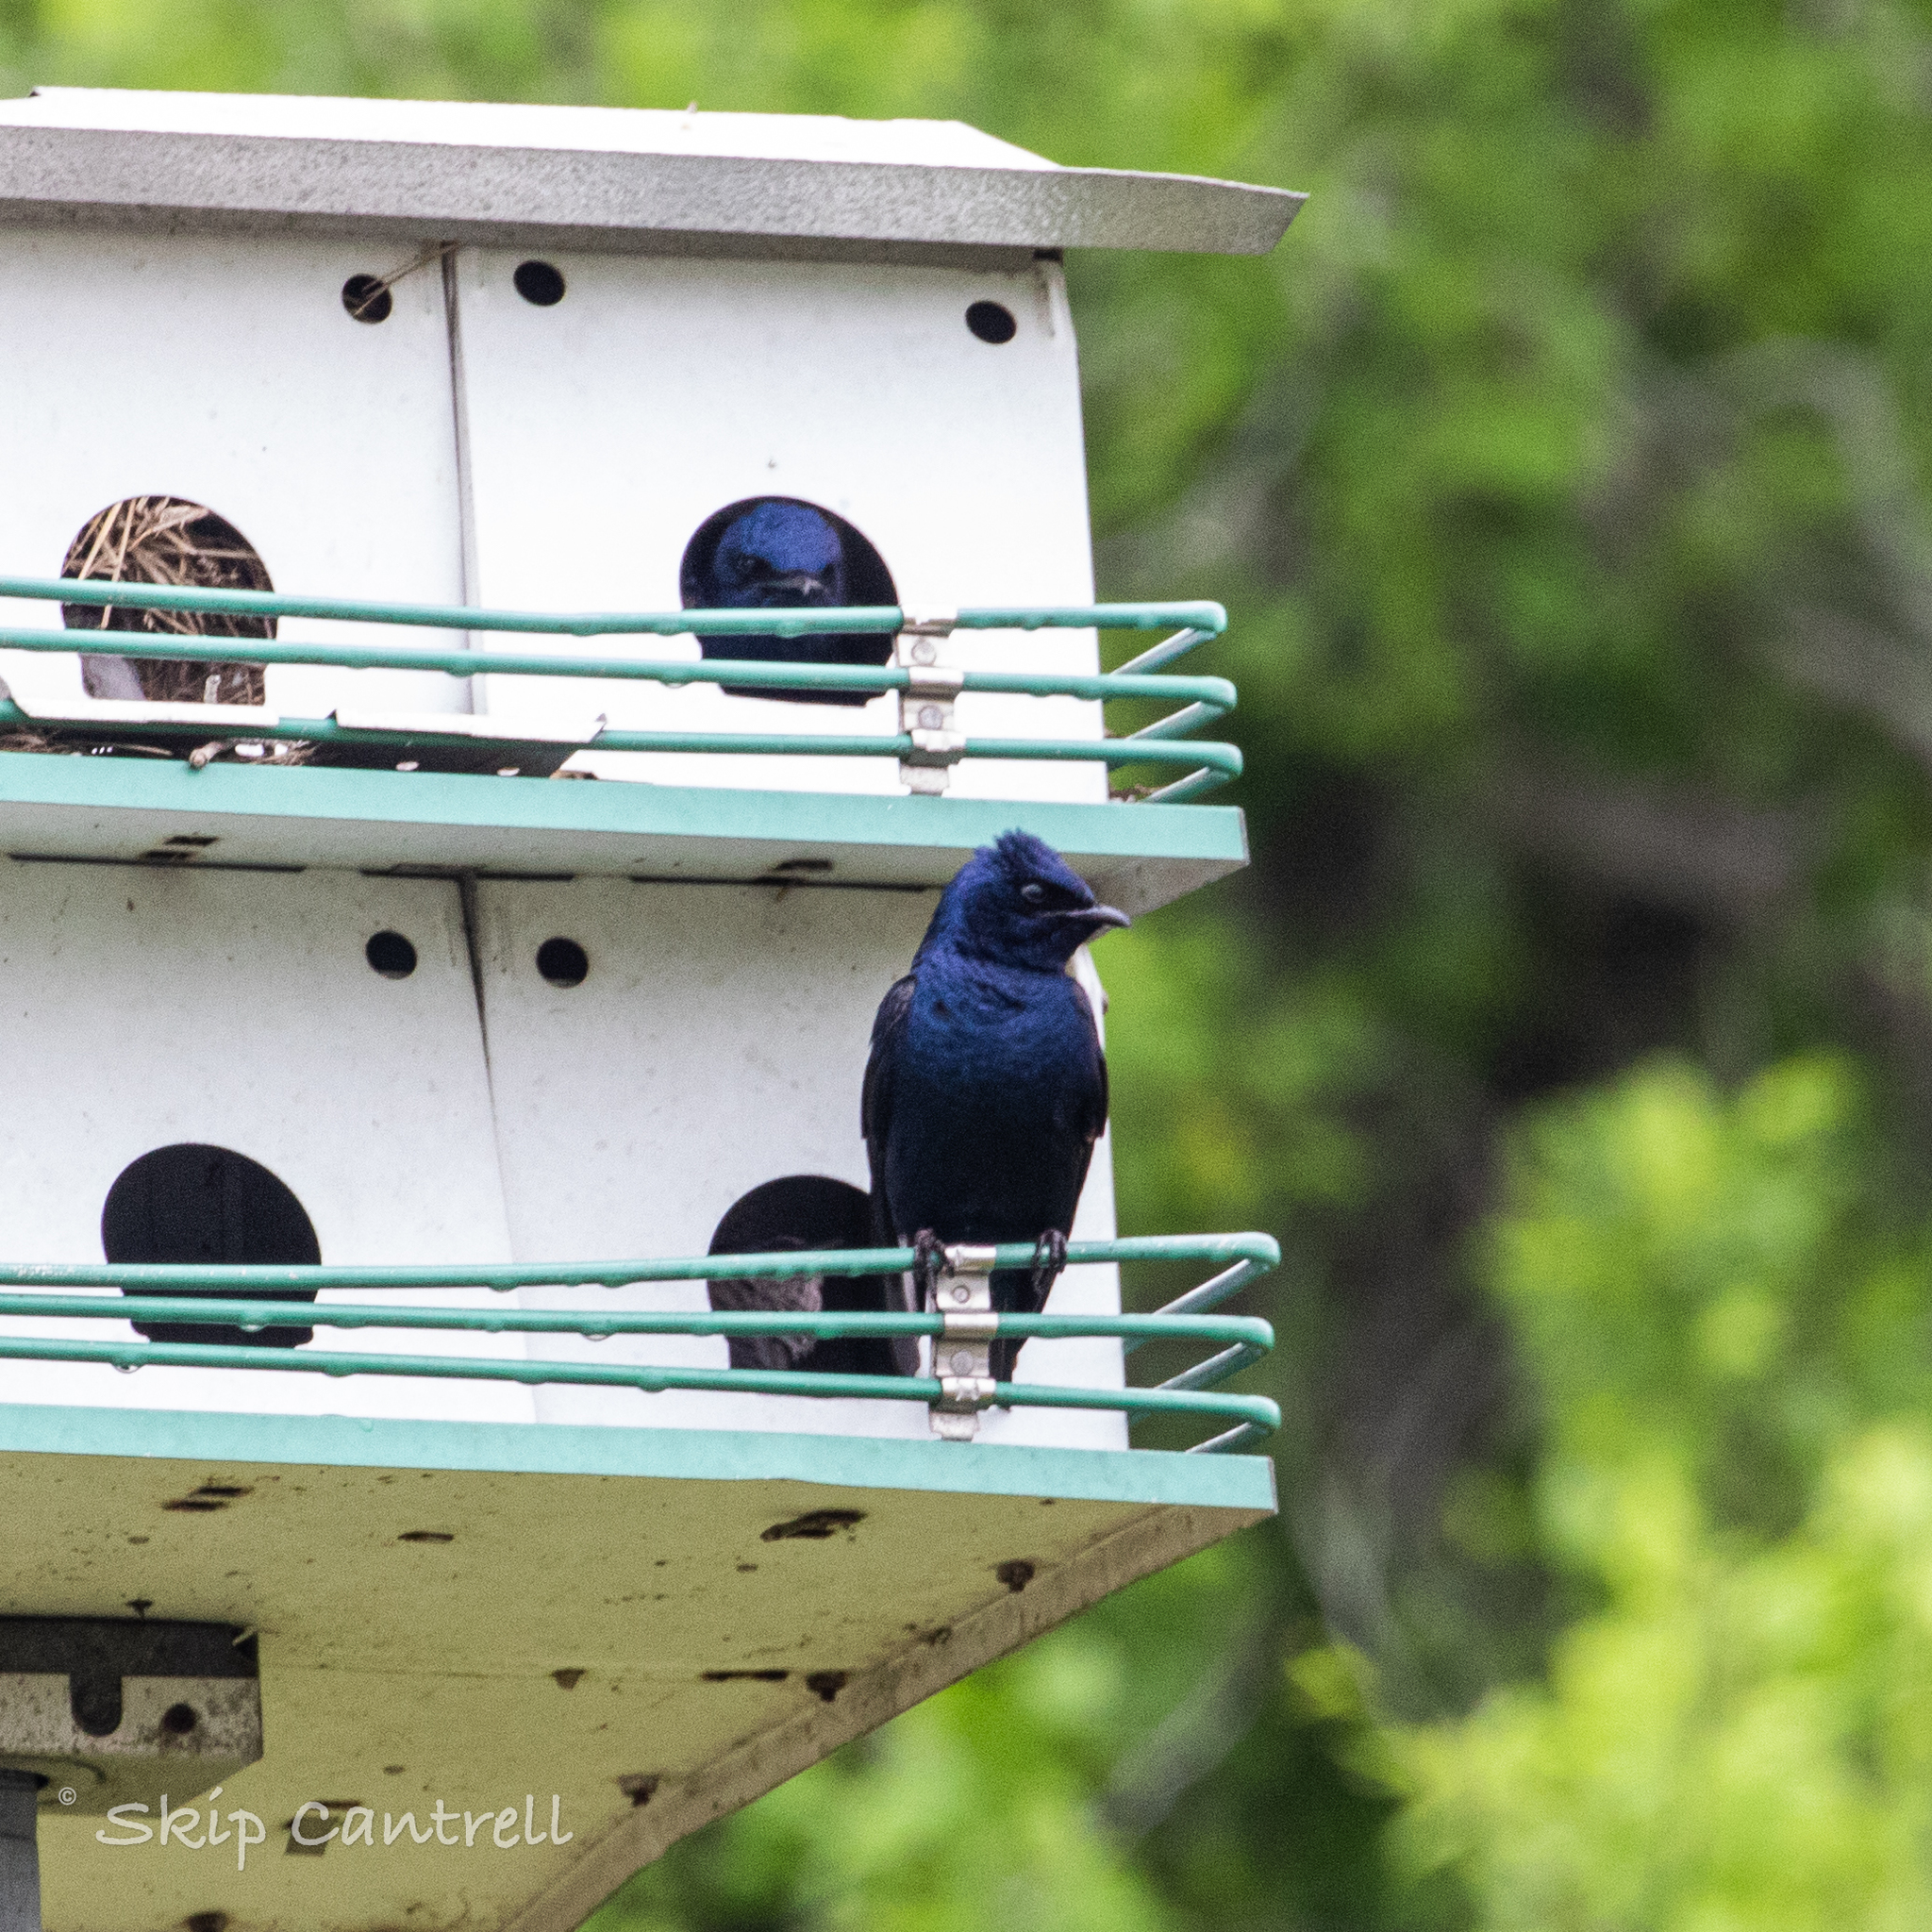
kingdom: Animalia
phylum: Chordata
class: Aves
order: Passeriformes
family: Hirundinidae
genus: Progne
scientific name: Progne subis
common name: Purple martin
